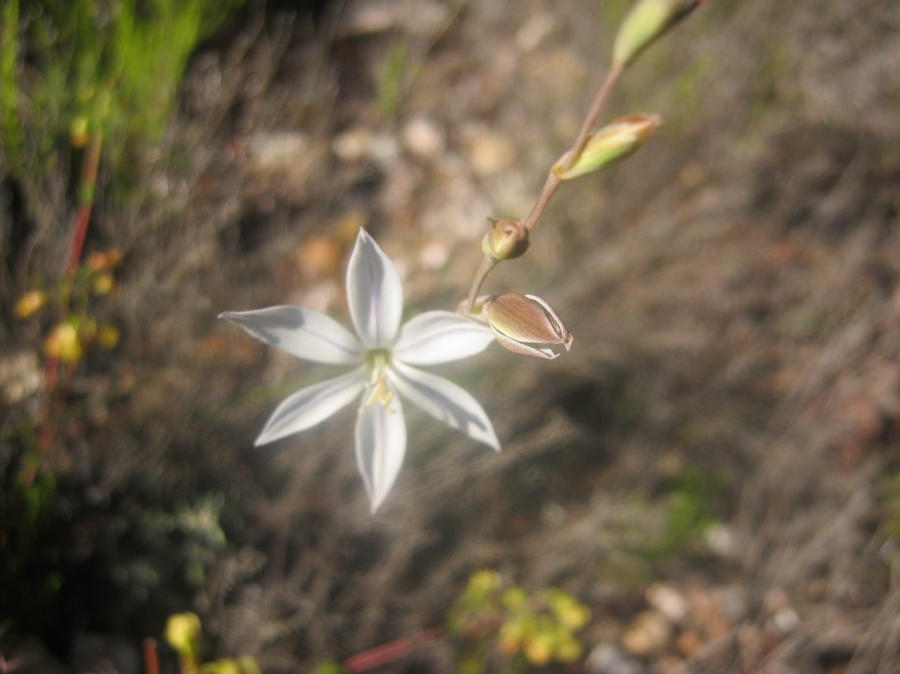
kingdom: Plantae
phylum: Tracheophyta
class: Liliopsida
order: Asparagales
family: Iridaceae
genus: Gladiolus
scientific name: Gladiolus stellatus
